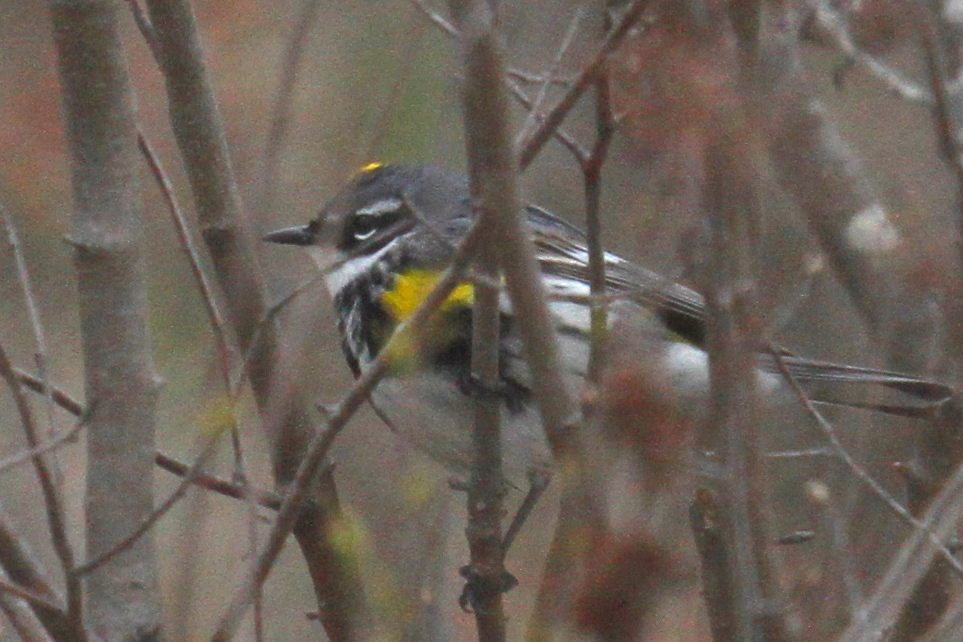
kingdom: Animalia
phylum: Chordata
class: Aves
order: Passeriformes
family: Parulidae
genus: Setophaga
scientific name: Setophaga coronata
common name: Myrtle warbler
